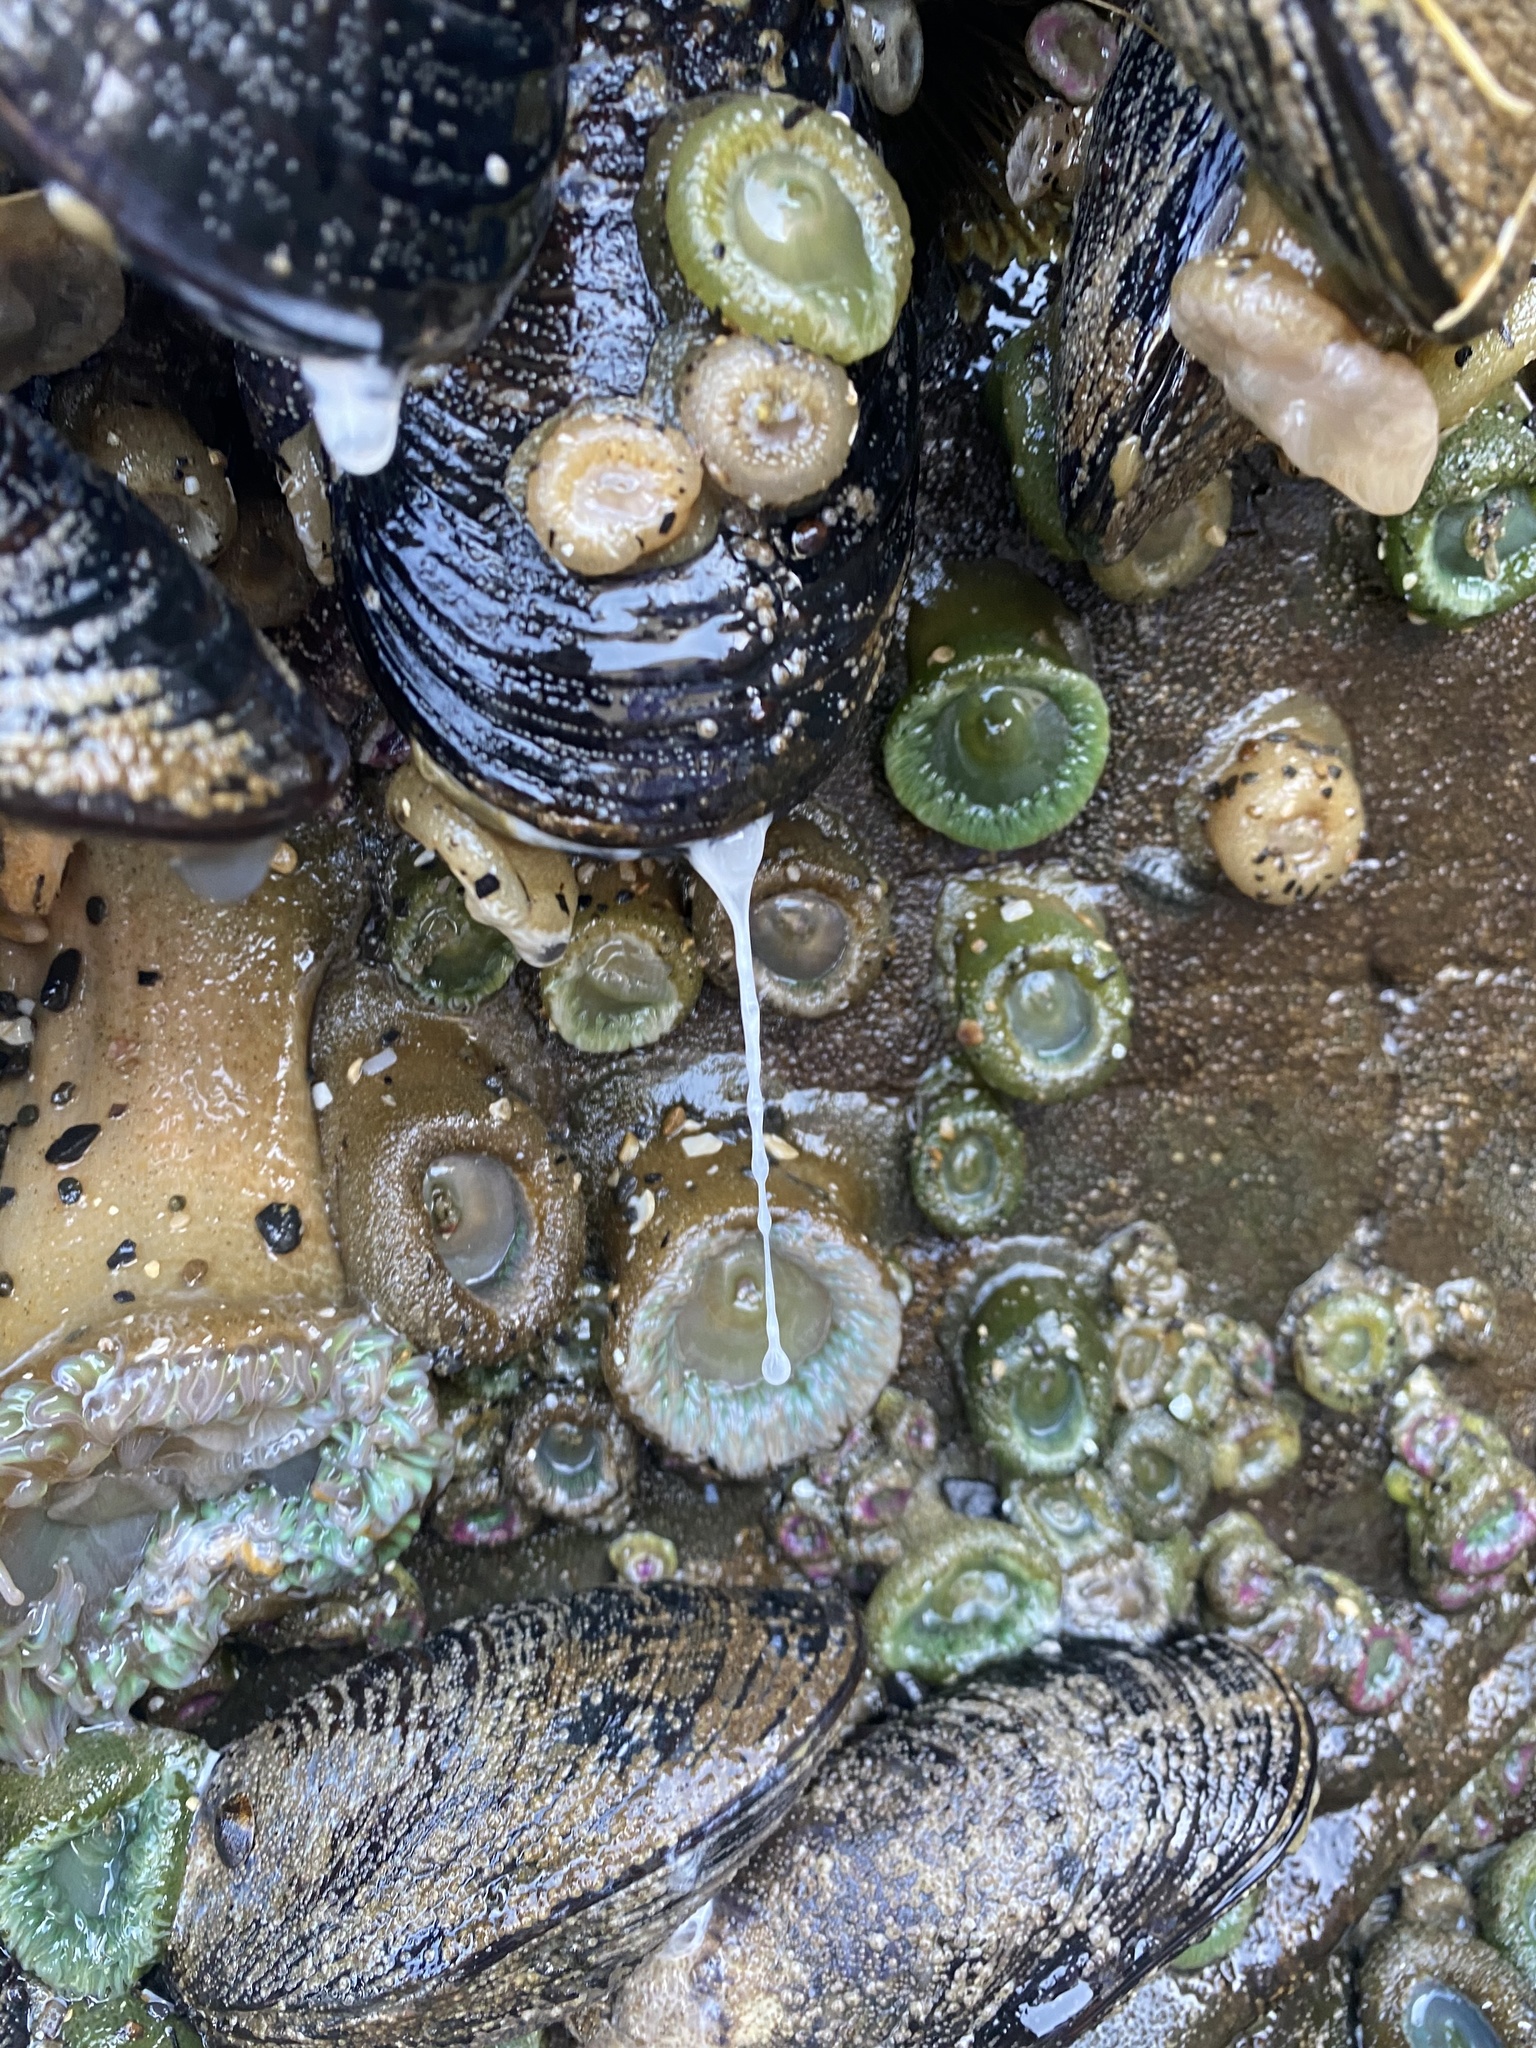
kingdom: Animalia
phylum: Mollusca
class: Bivalvia
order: Mytilida
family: Mytilidae
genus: Mytilus
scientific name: Mytilus californianus
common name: California mussel
